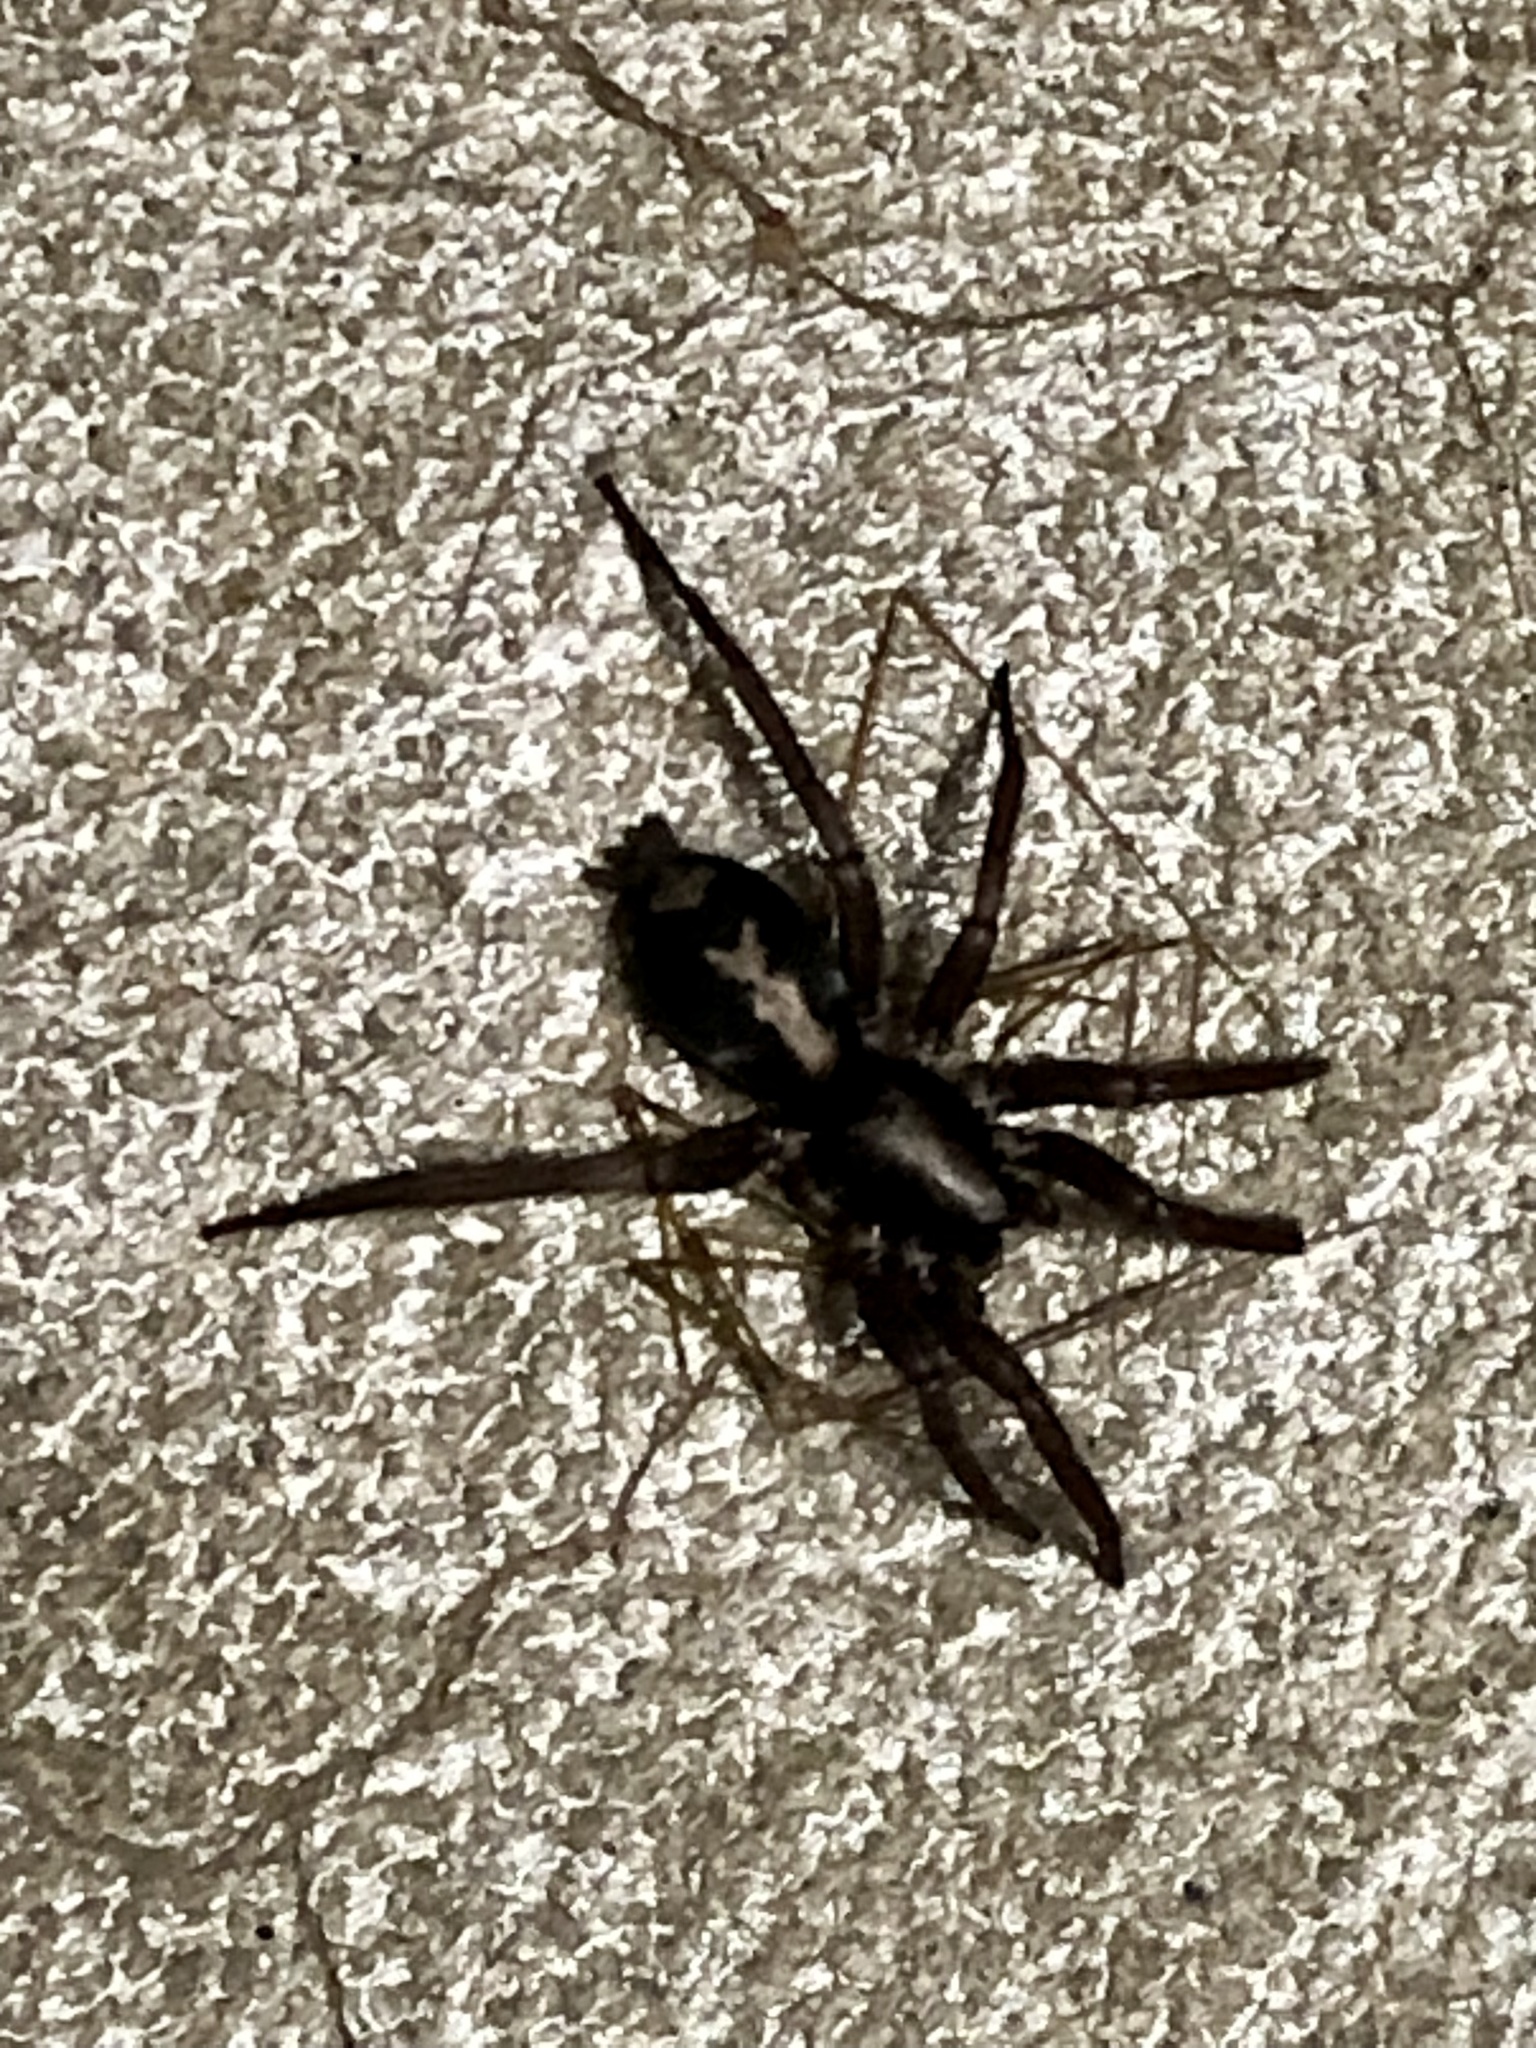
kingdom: Animalia
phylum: Arthropoda
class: Arachnida
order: Araneae
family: Gnaphosidae
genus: Herpyllus
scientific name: Herpyllus ecclesiasticus
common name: Eastern parson spider
